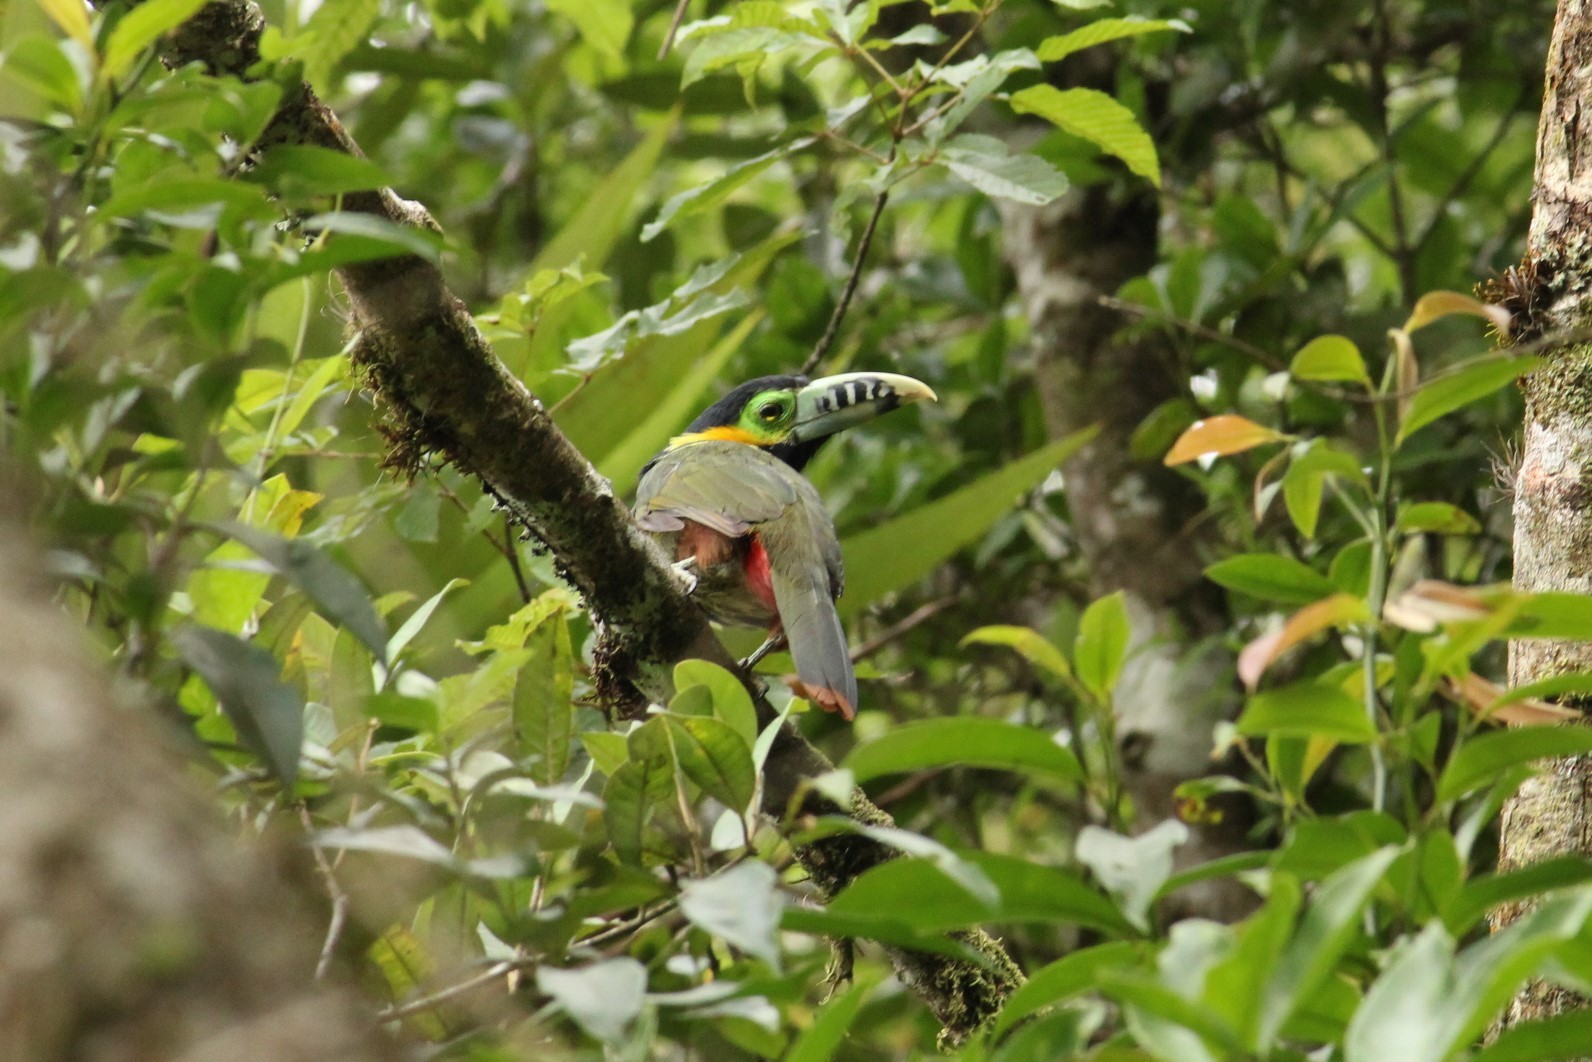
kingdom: Animalia
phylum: Chordata
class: Aves
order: Piciformes
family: Ramphastidae
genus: Selenidera
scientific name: Selenidera maculirostris
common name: Spot-billed toucanet
